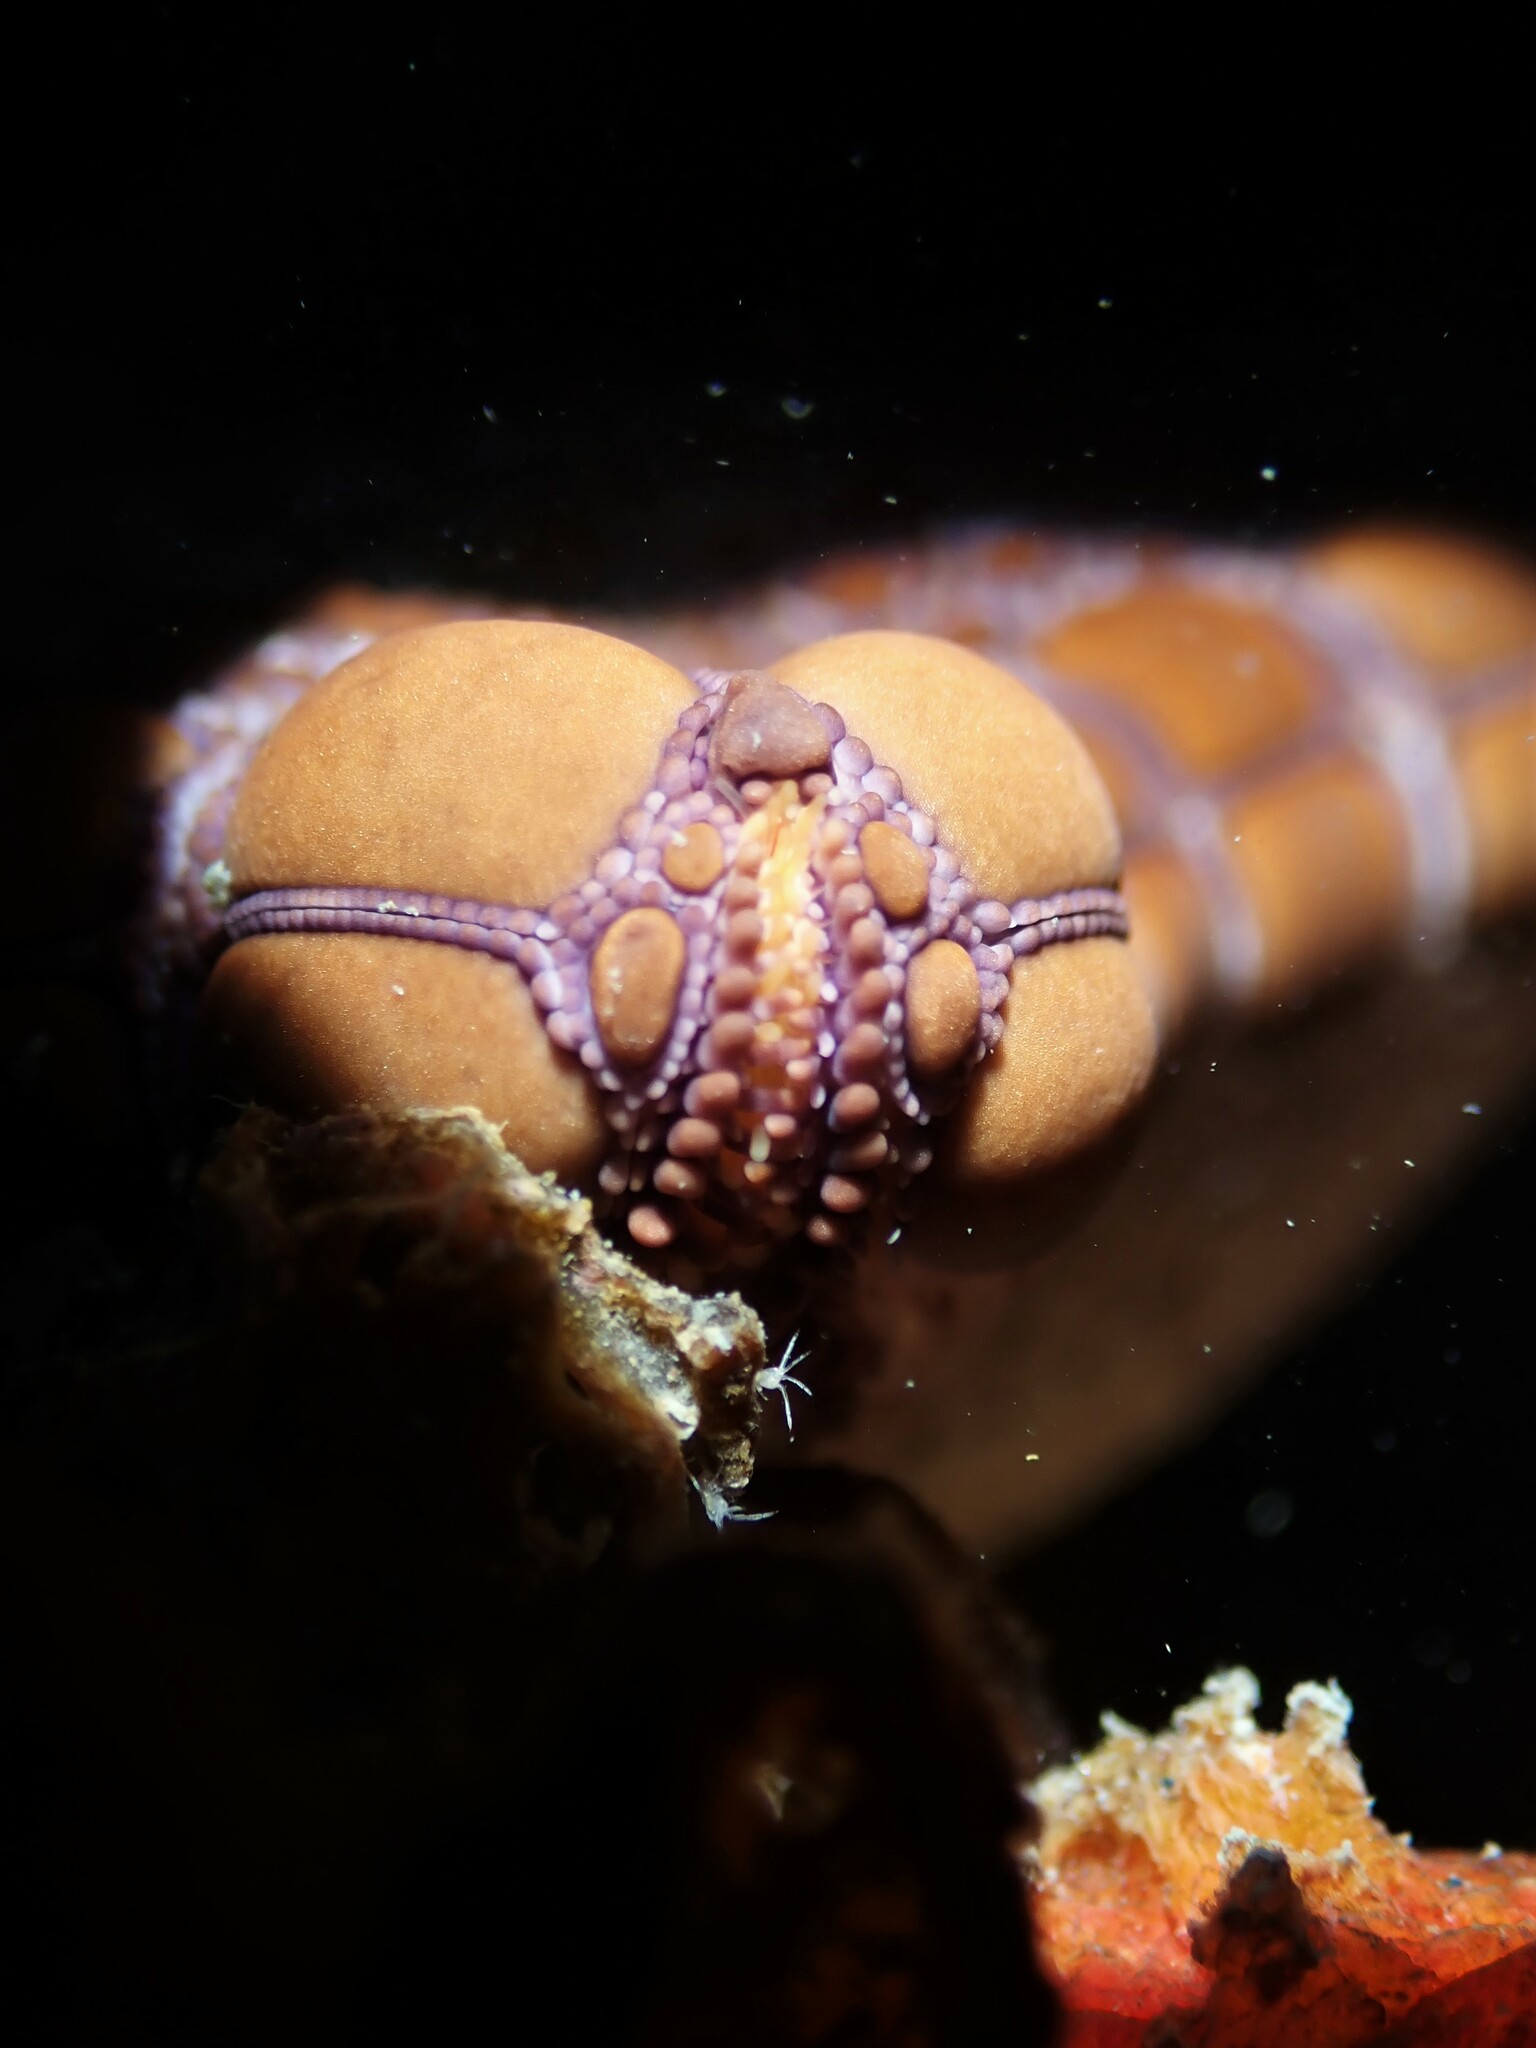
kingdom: Animalia
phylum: Echinodermata
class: Asteroidea
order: Valvatida
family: Goniasteridae
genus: Pentagonaster
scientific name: Pentagonaster pulchellus
